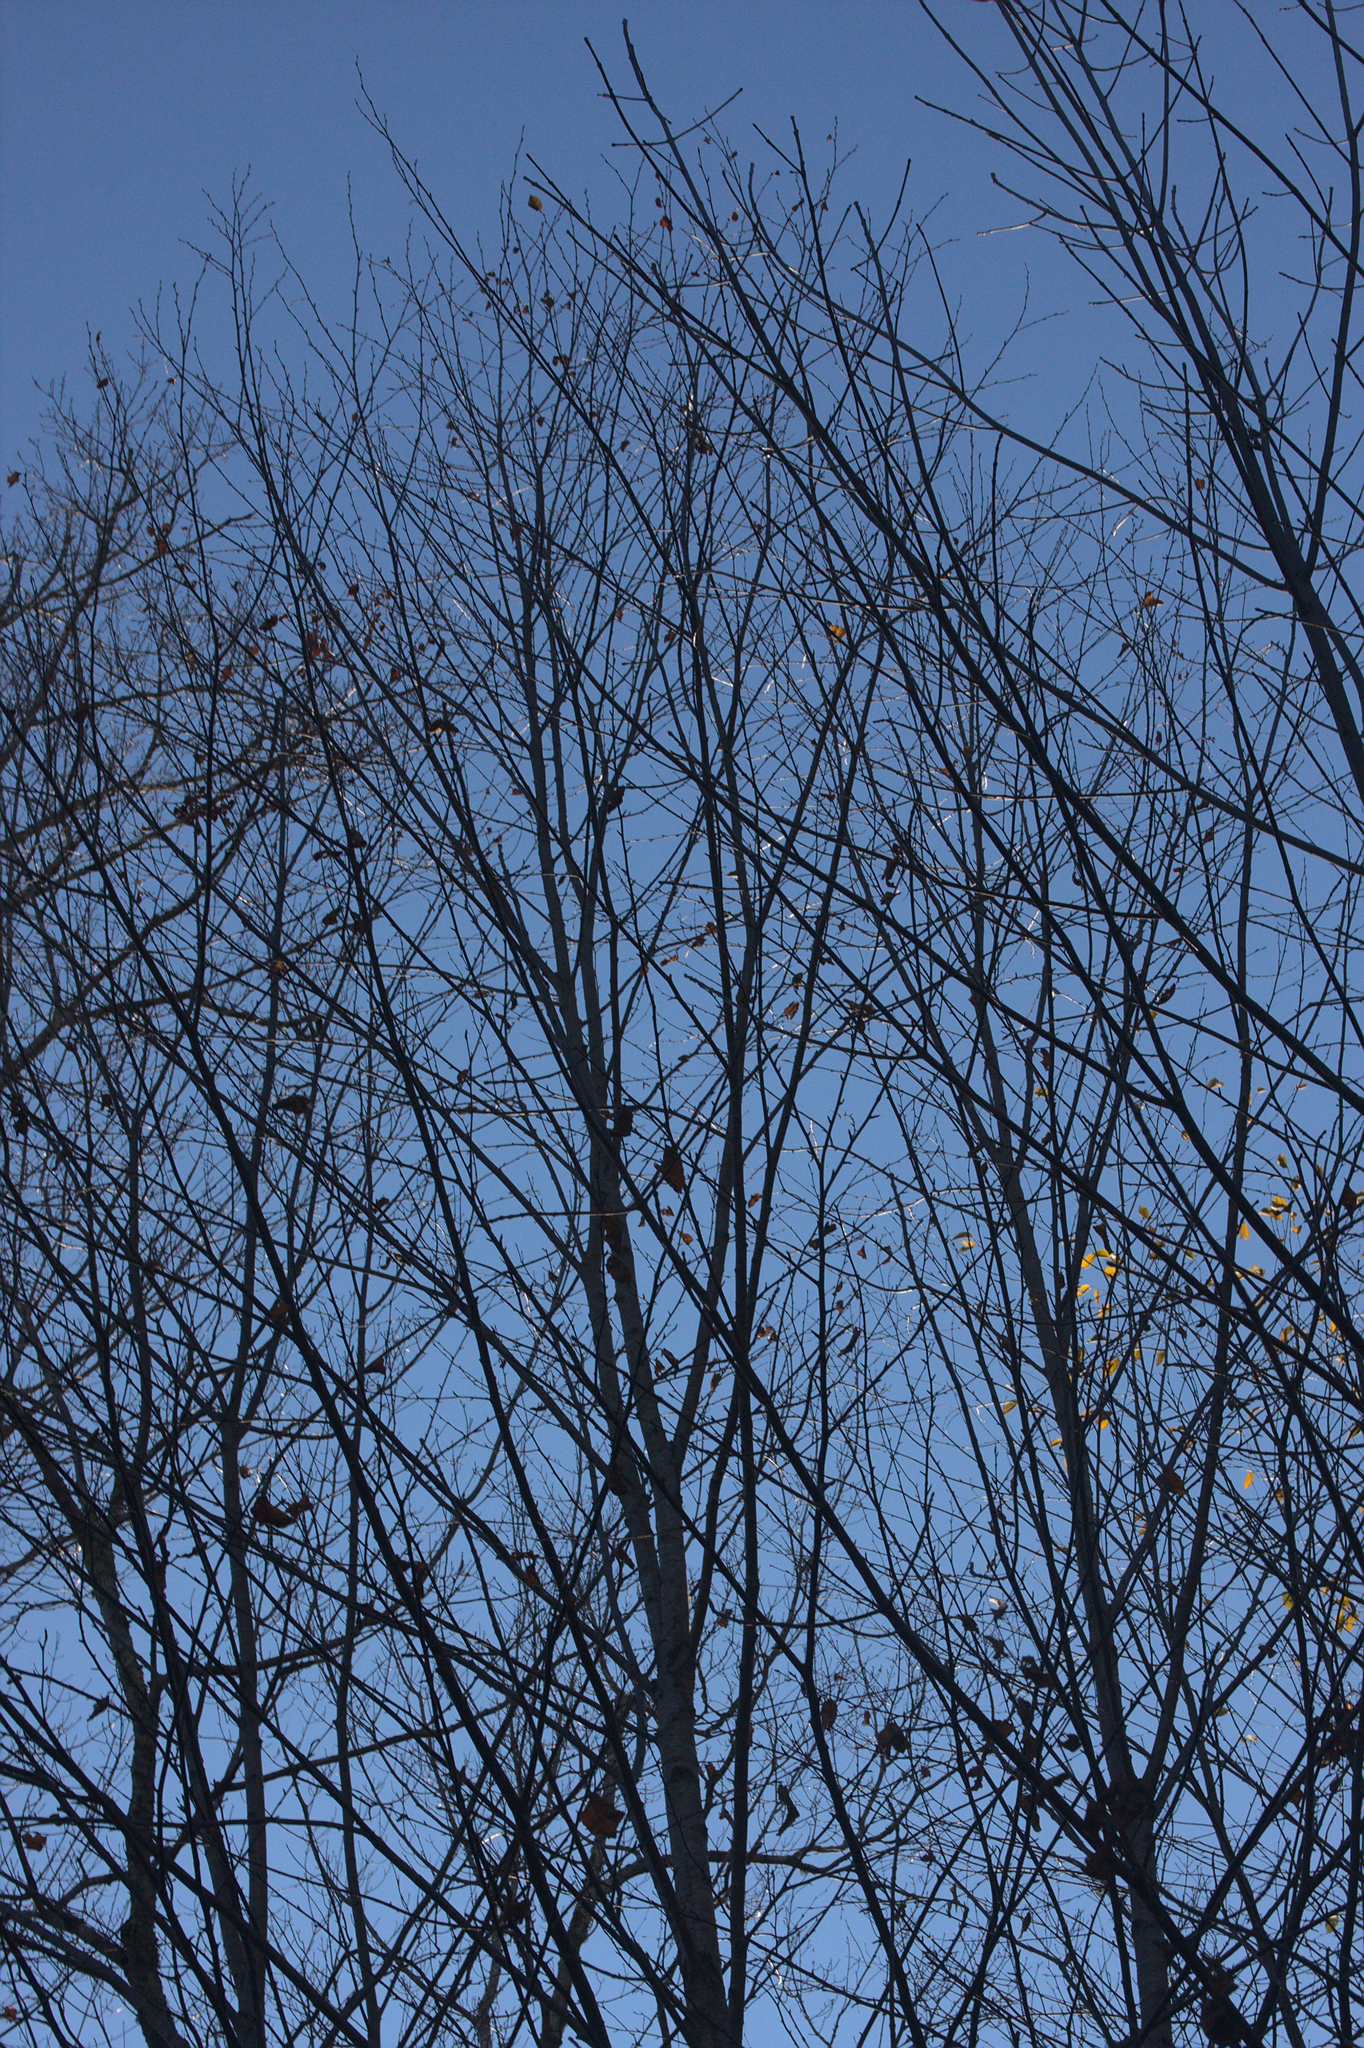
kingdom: Plantae
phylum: Tracheophyta
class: Magnoliopsida
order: Fagales
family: Betulaceae
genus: Betula
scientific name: Betula alleghaniensis
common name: Yellow birch
